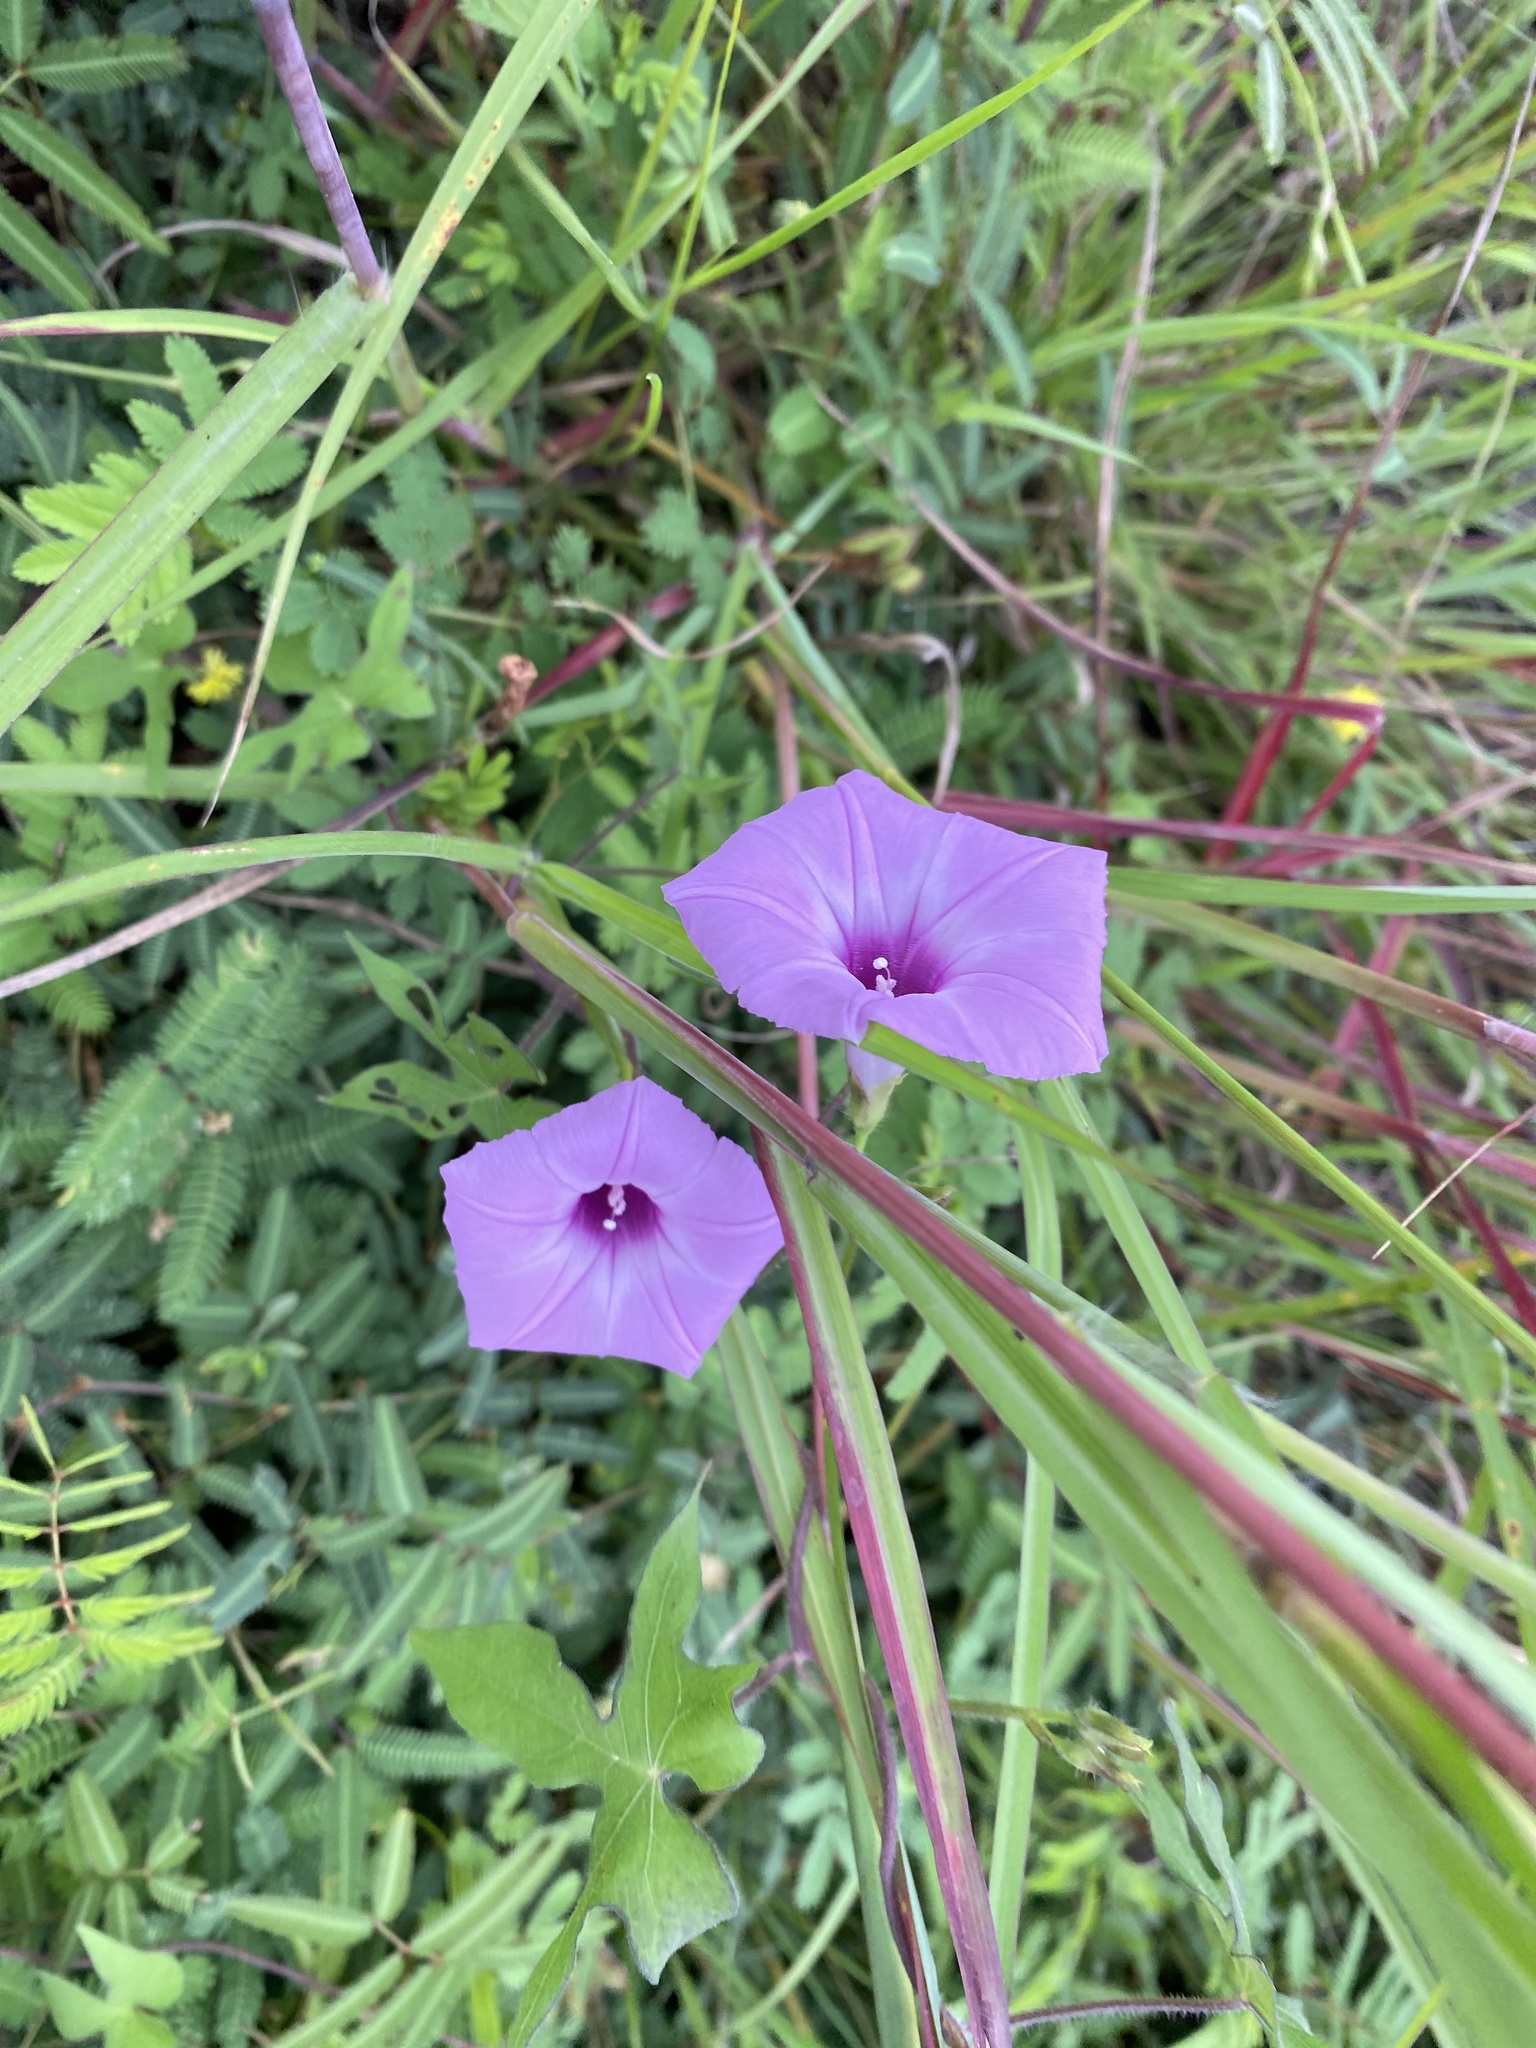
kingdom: Plantae
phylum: Tracheophyta
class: Magnoliopsida
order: Solanales
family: Convolvulaceae
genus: Ipomoea
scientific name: Ipomoea cordatotriloba
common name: Cotton morning glory
